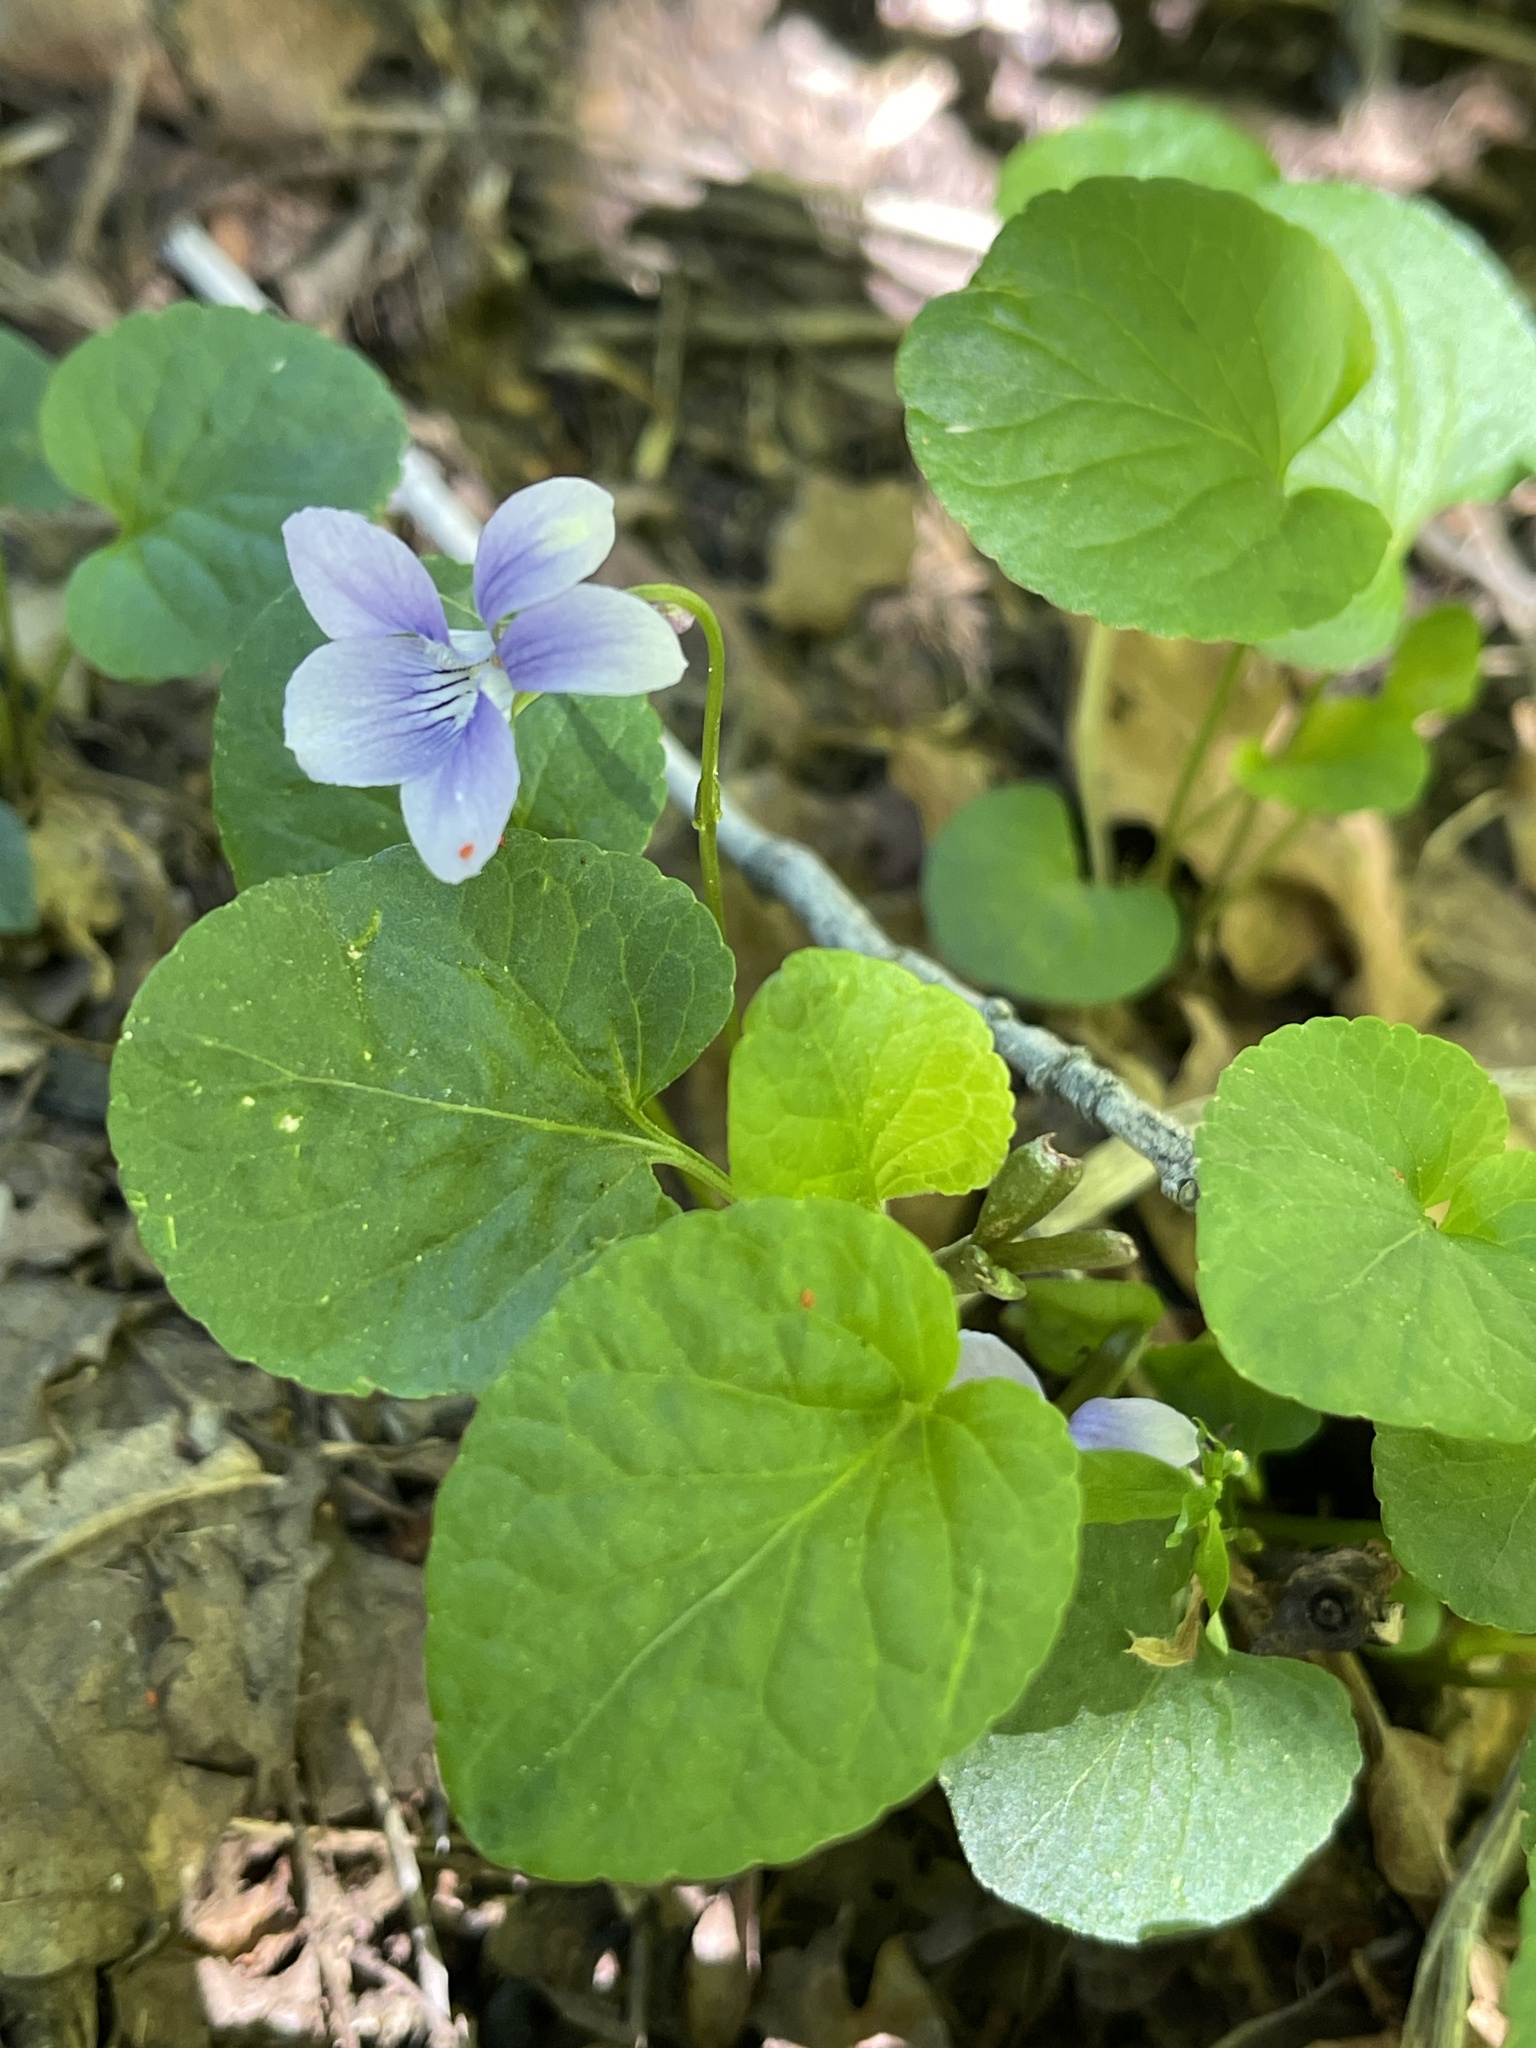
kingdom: Plantae
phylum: Tracheophyta
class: Magnoliopsida
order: Malpighiales
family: Violaceae
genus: Viola
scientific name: Viola adunca
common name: Sand violet
